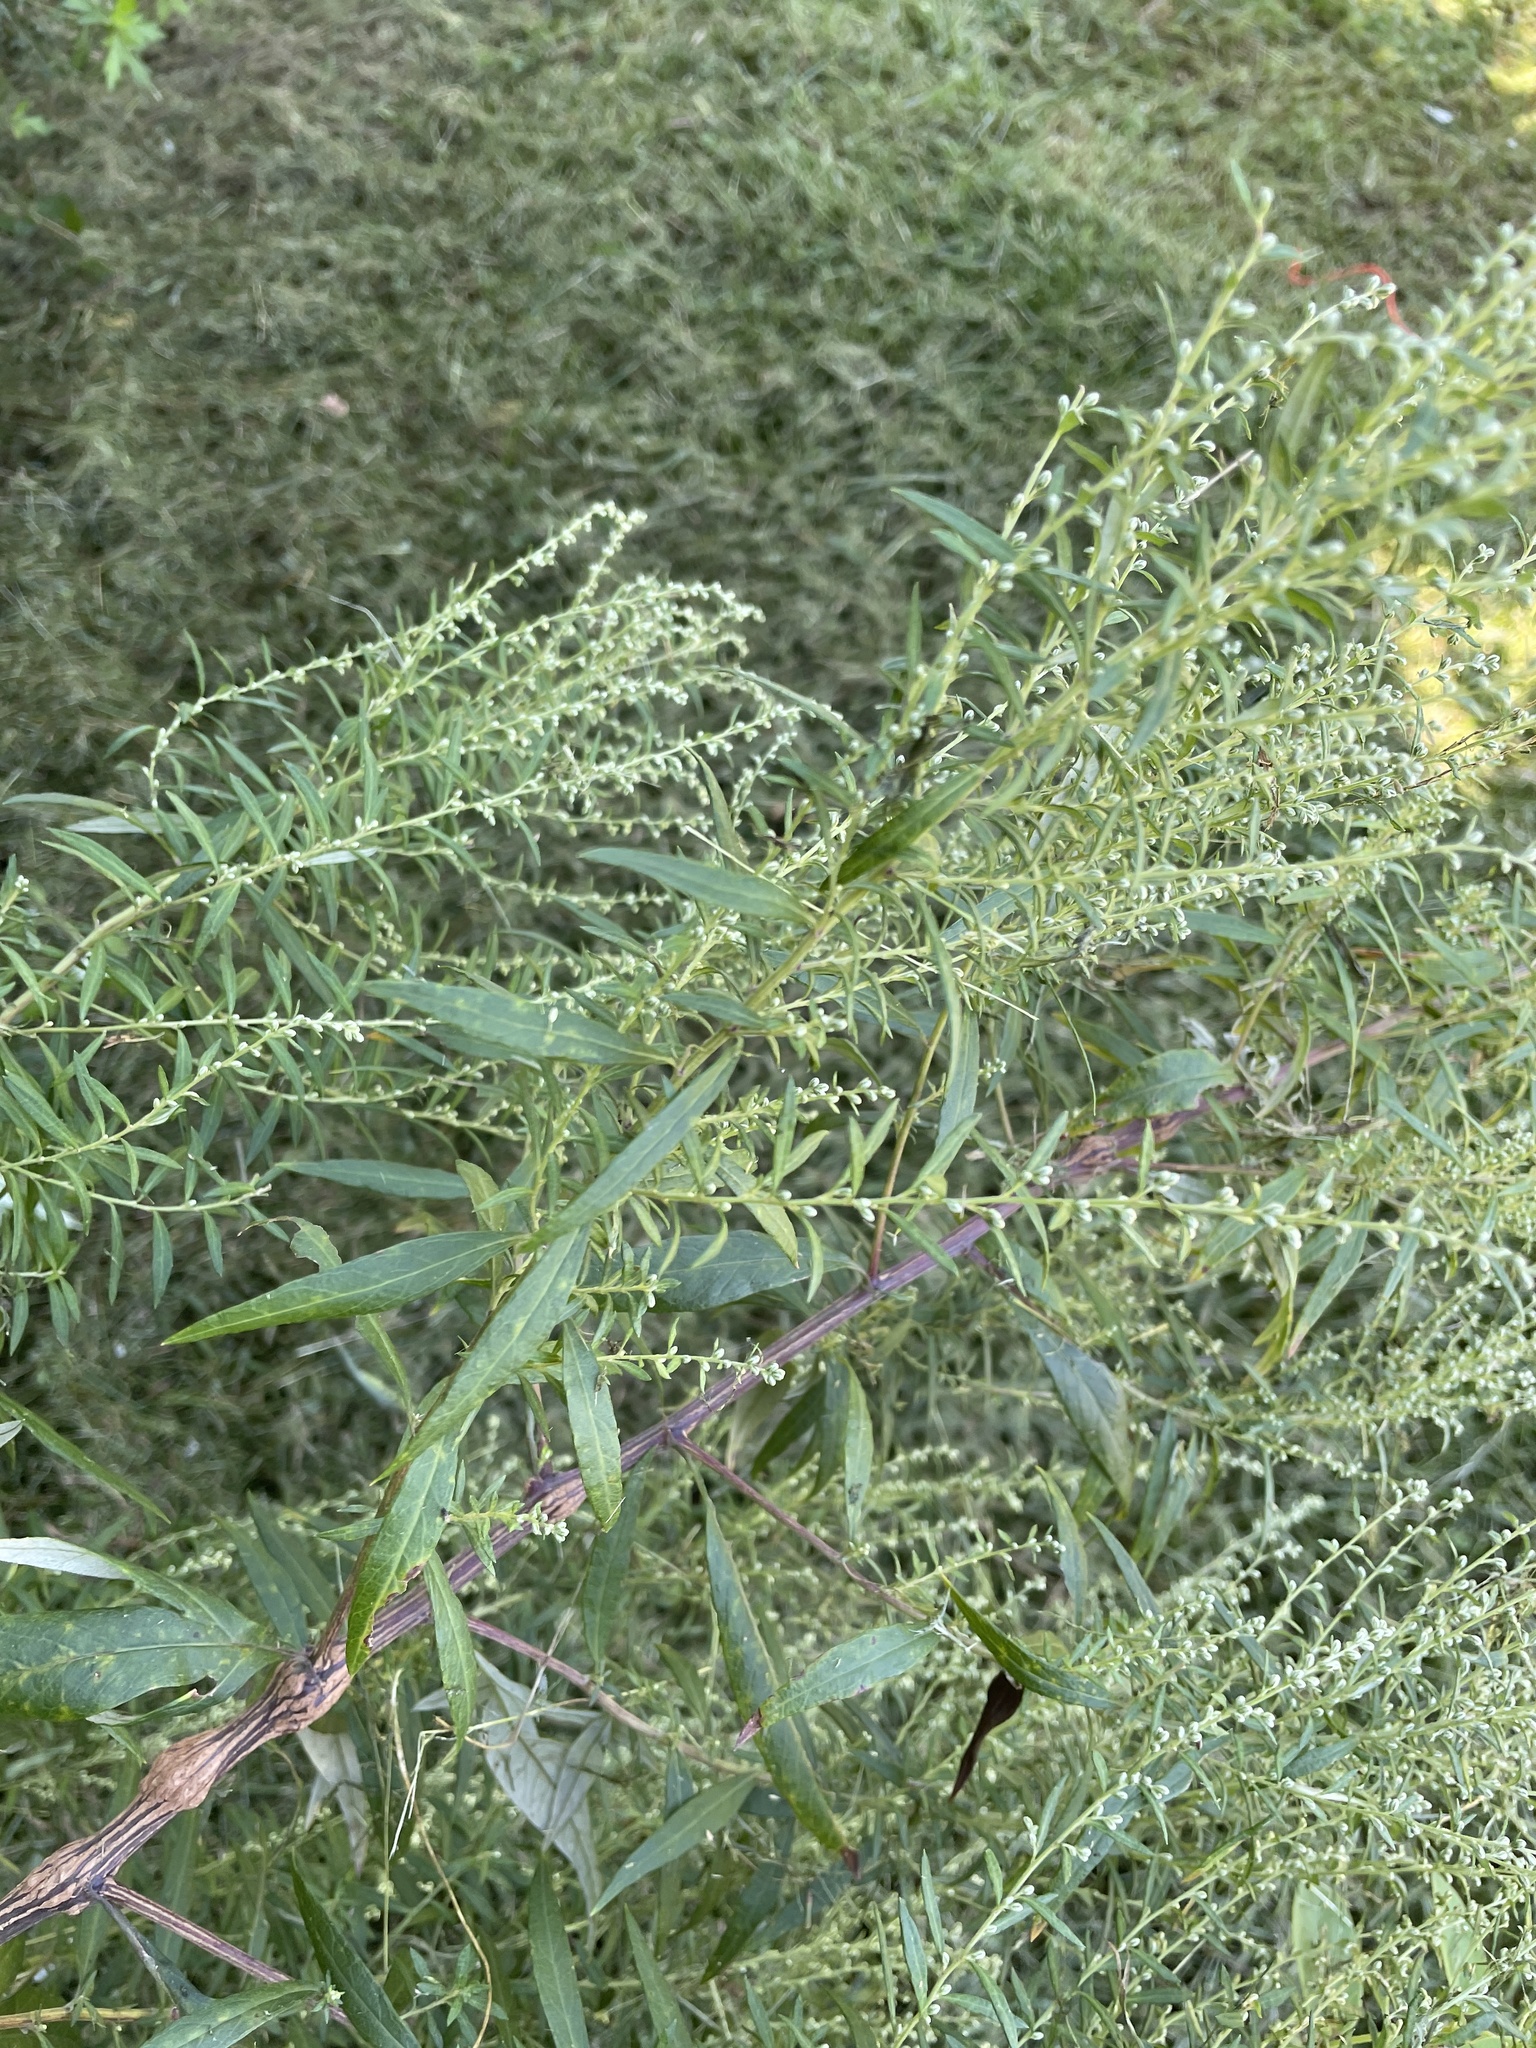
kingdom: Plantae
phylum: Tracheophyta
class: Magnoliopsida
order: Asterales
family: Asteraceae
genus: Artemisia
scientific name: Artemisia vulgaris
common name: Mugwort
